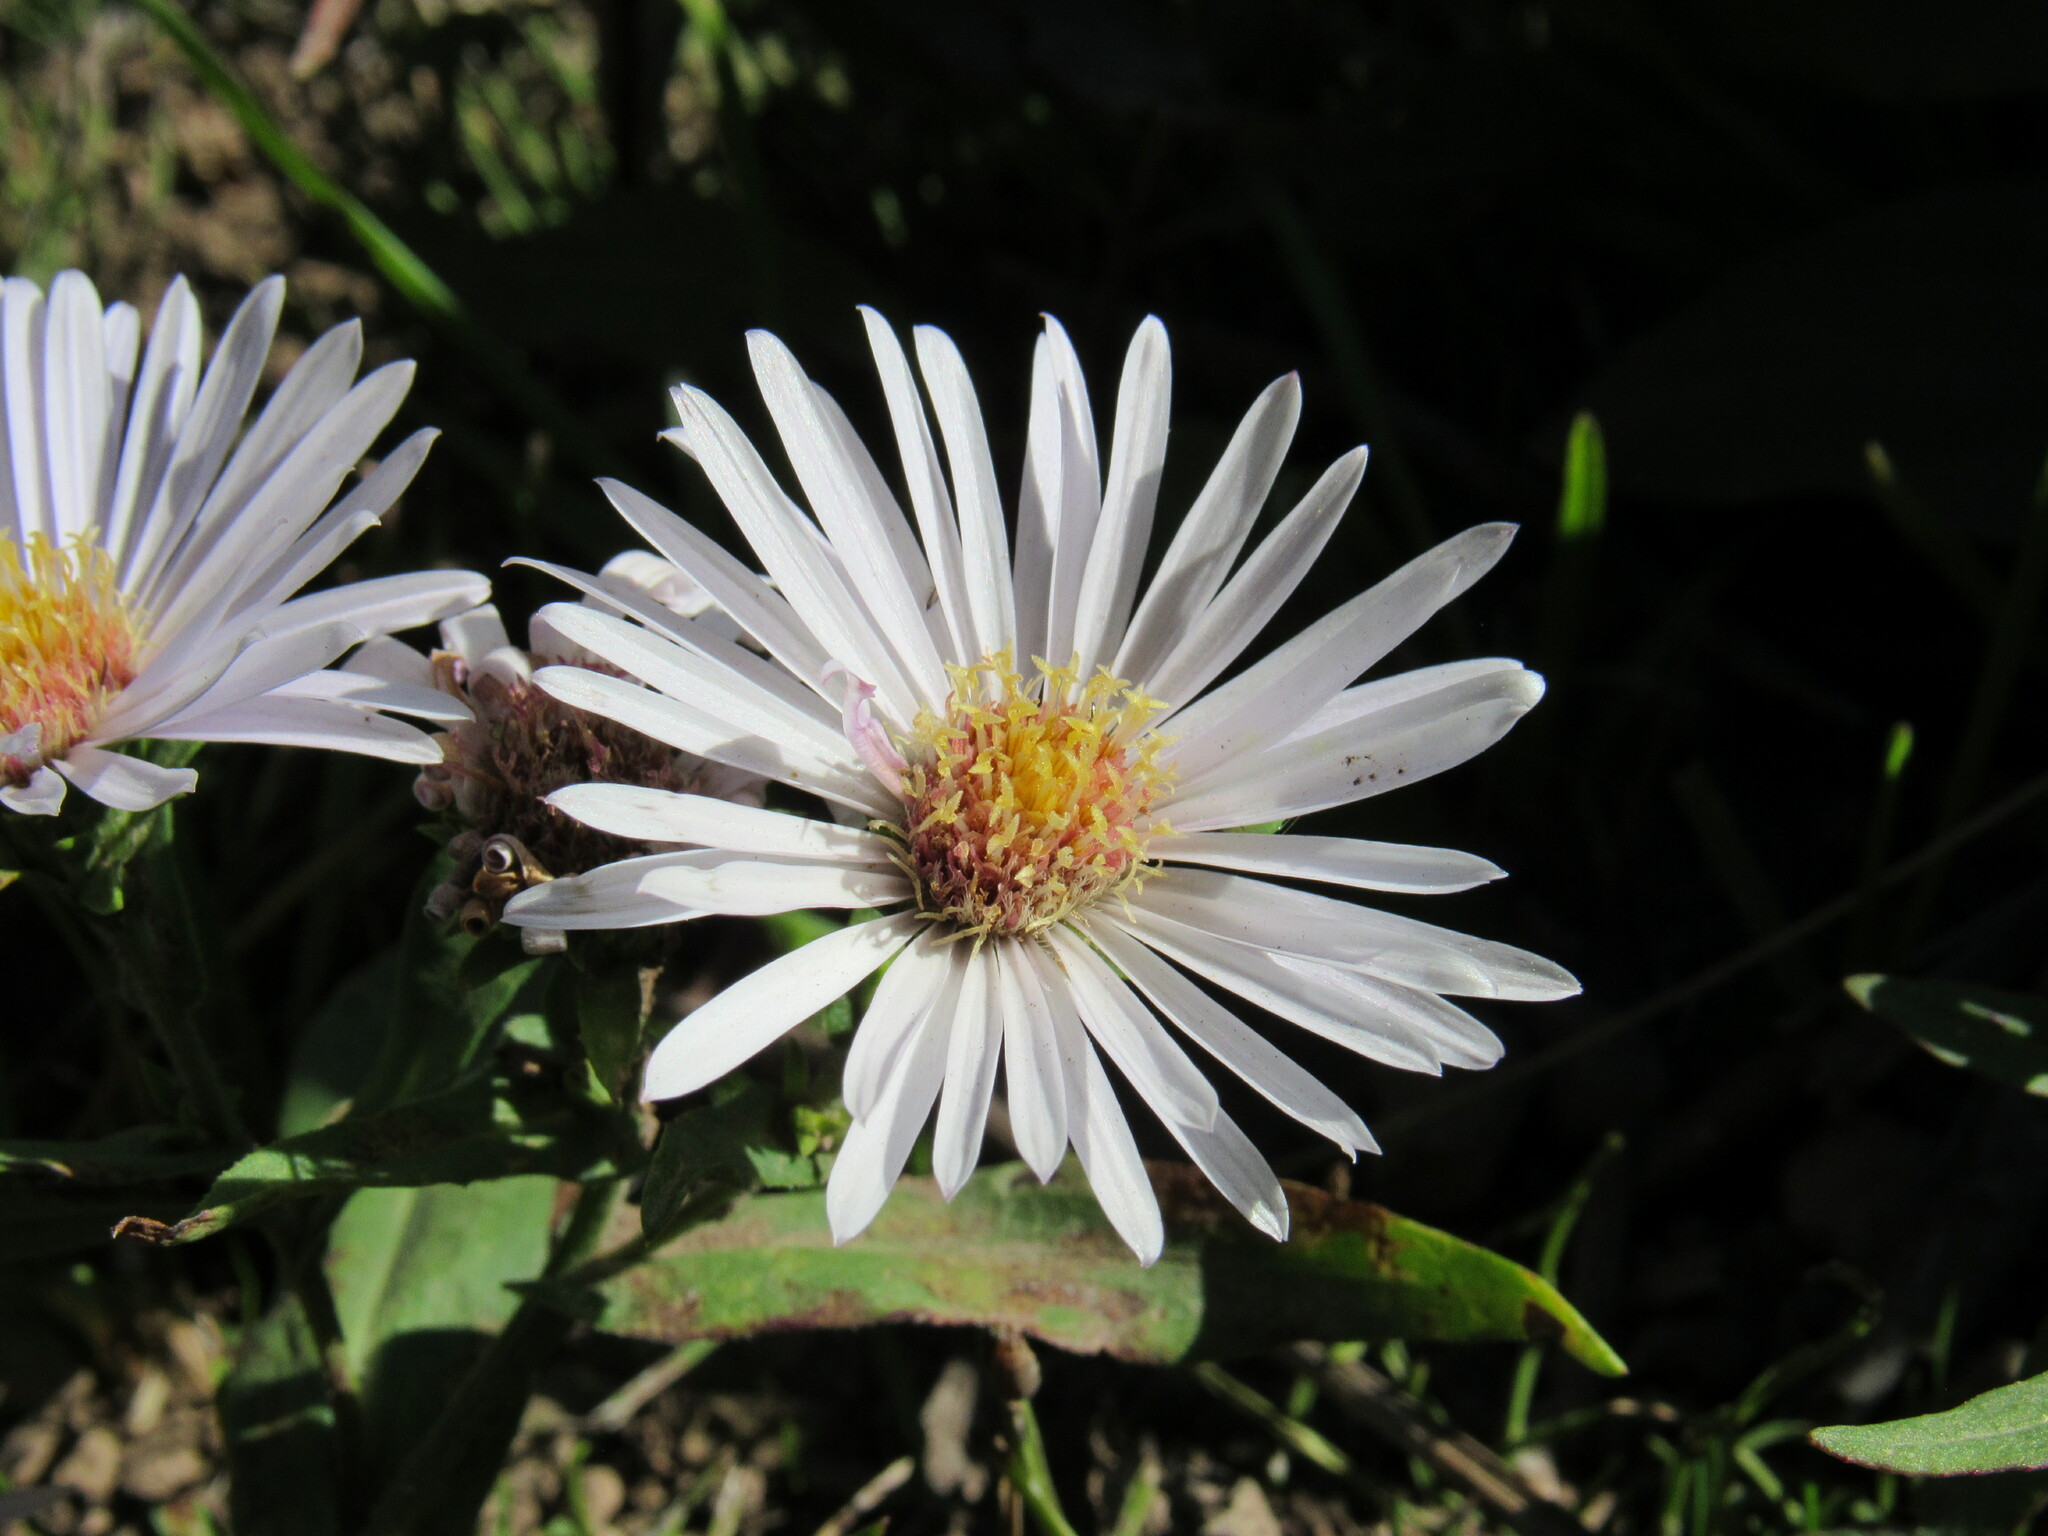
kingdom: Plantae
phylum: Tracheophyta
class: Magnoliopsida
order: Asterales
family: Asteraceae
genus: Symphyotrichum
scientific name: Symphyotrichum lanceolatum
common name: Panicled aster
